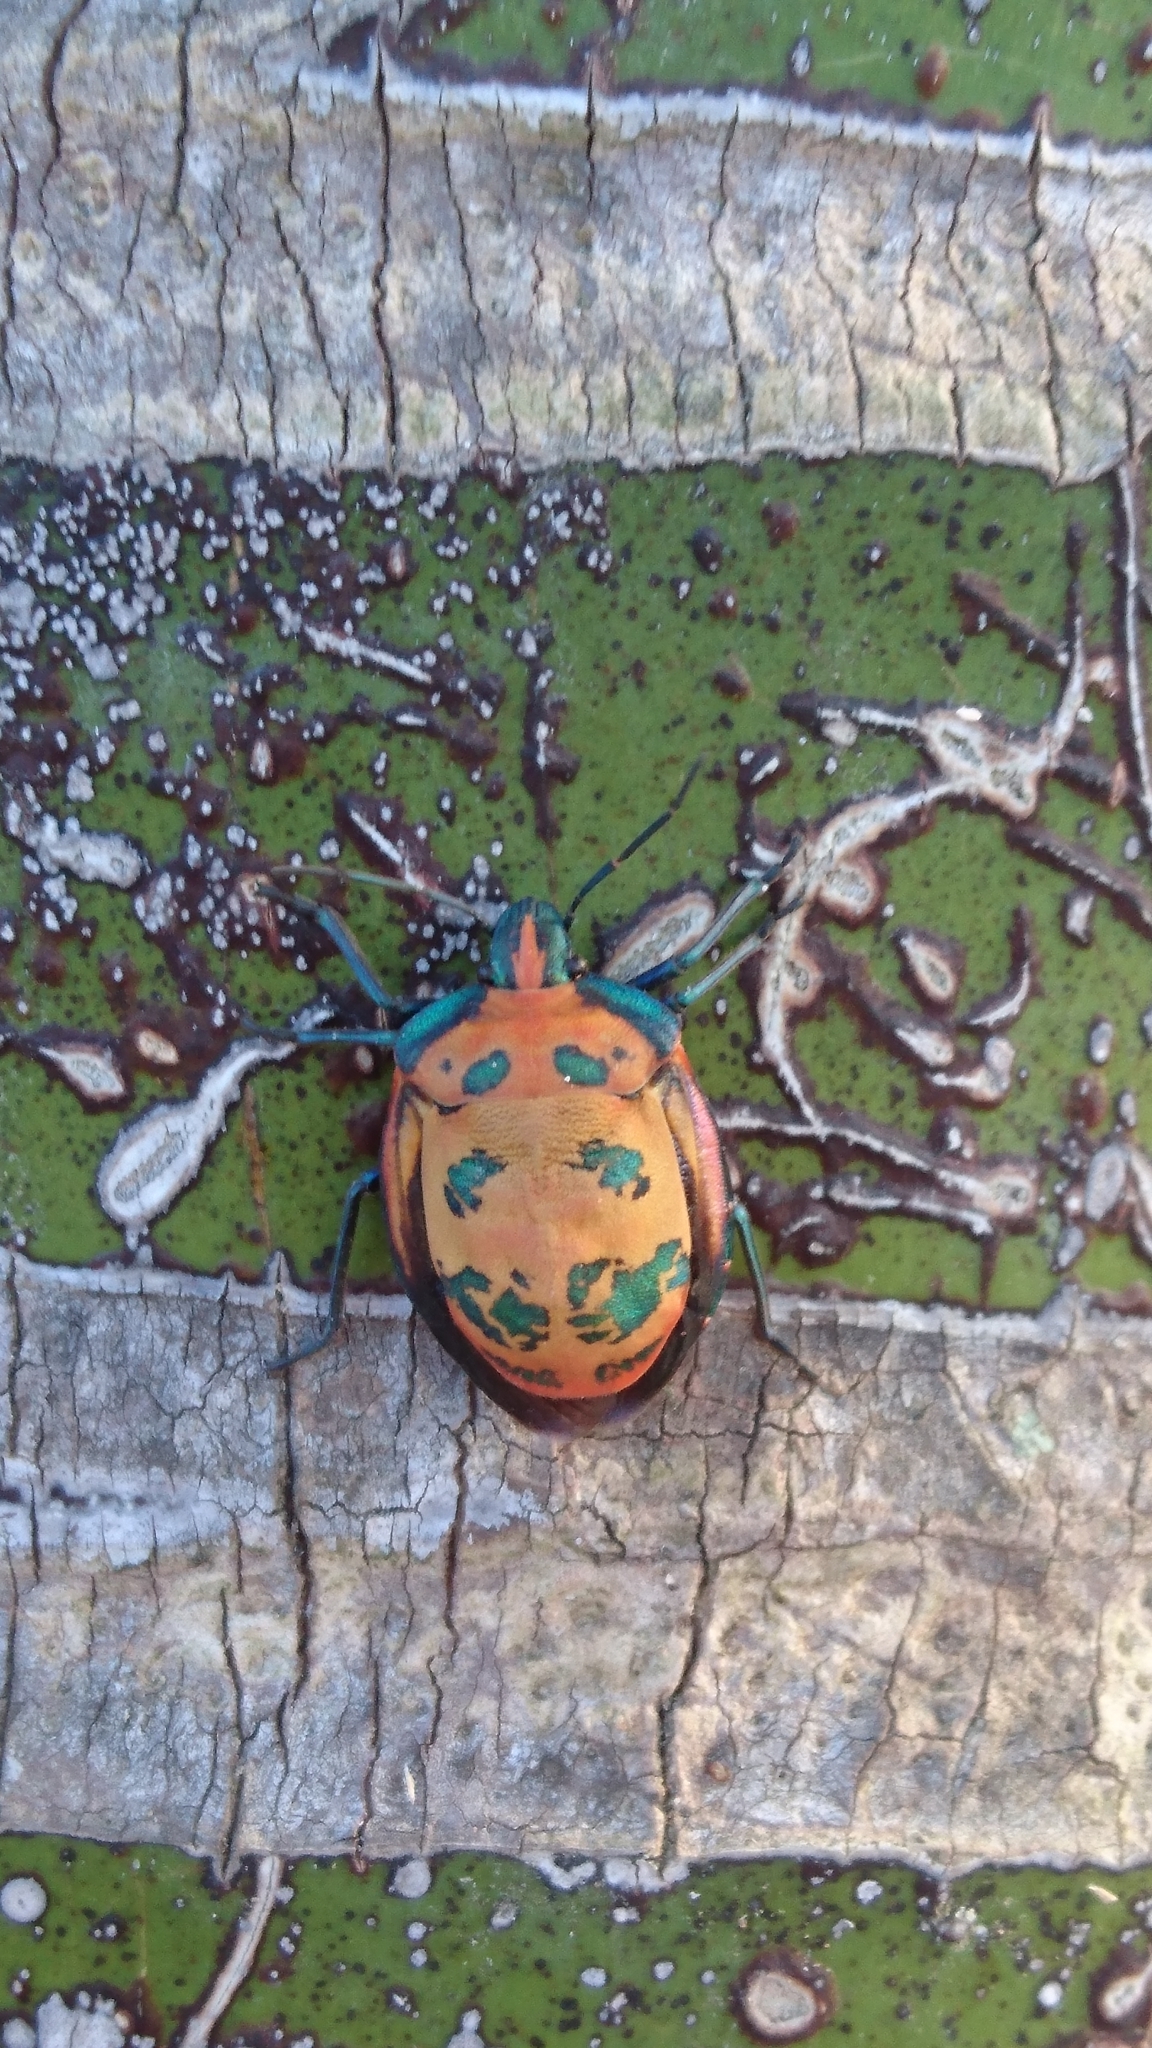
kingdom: Animalia
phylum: Arthropoda
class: Insecta
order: Hemiptera
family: Scutelleridae
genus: Tectocoris
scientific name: Tectocoris diophthalmus
